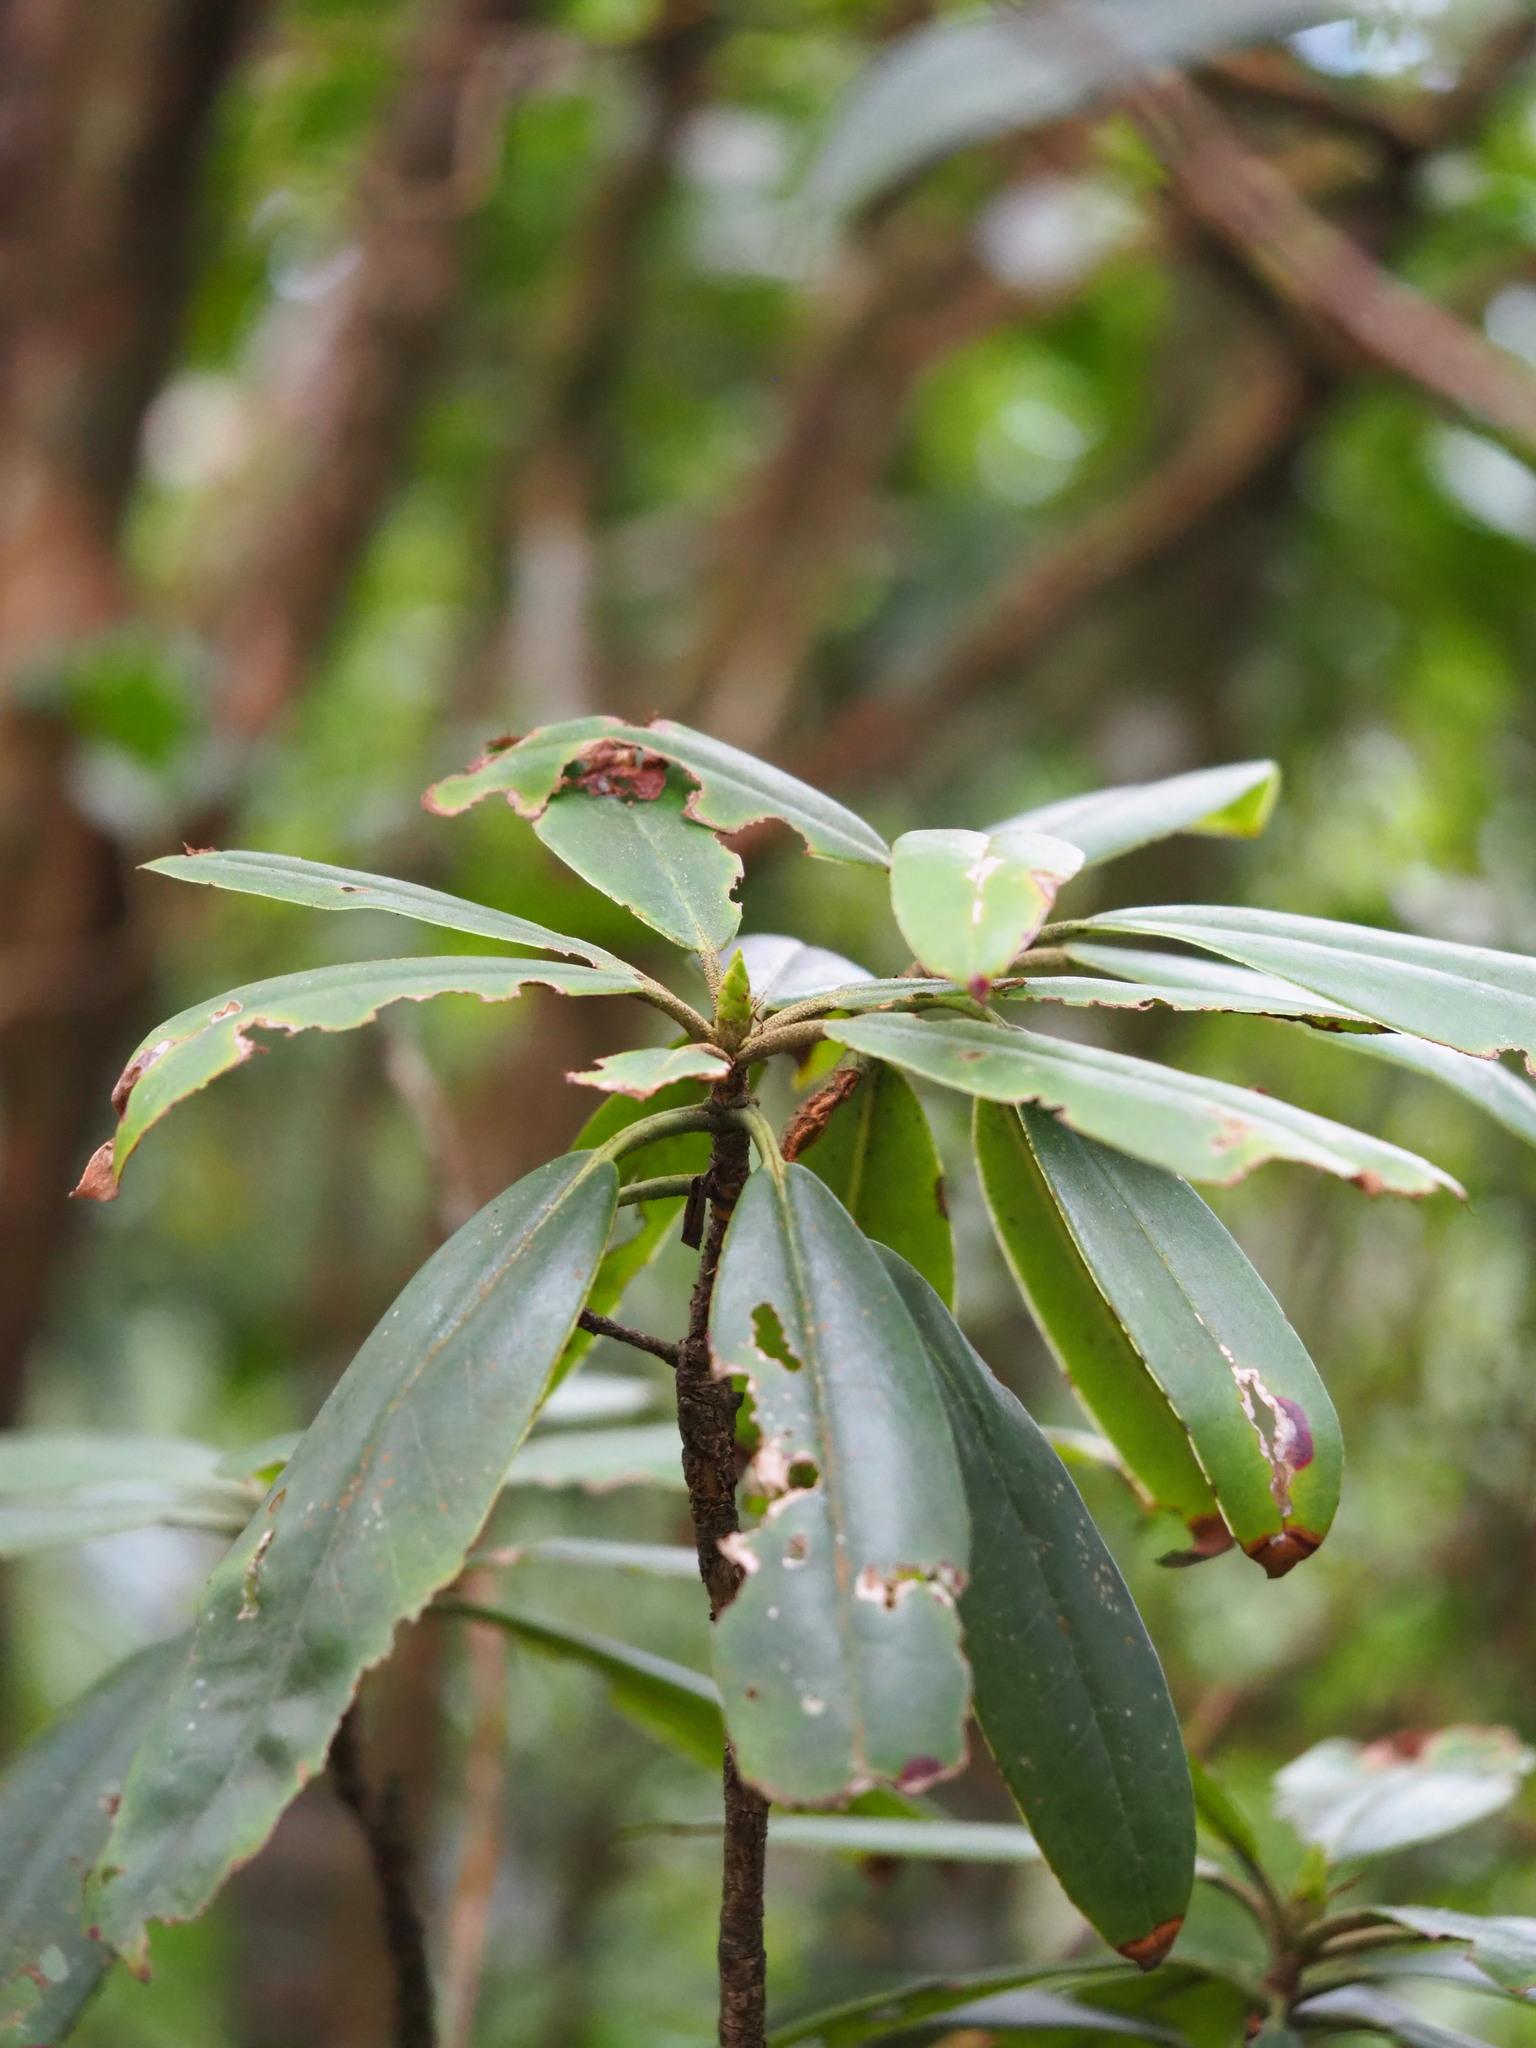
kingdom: Plantae
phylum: Tracheophyta
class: Magnoliopsida
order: Ericales
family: Ericaceae
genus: Rhododendron
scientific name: Rhododendron pseudochrysanthum
